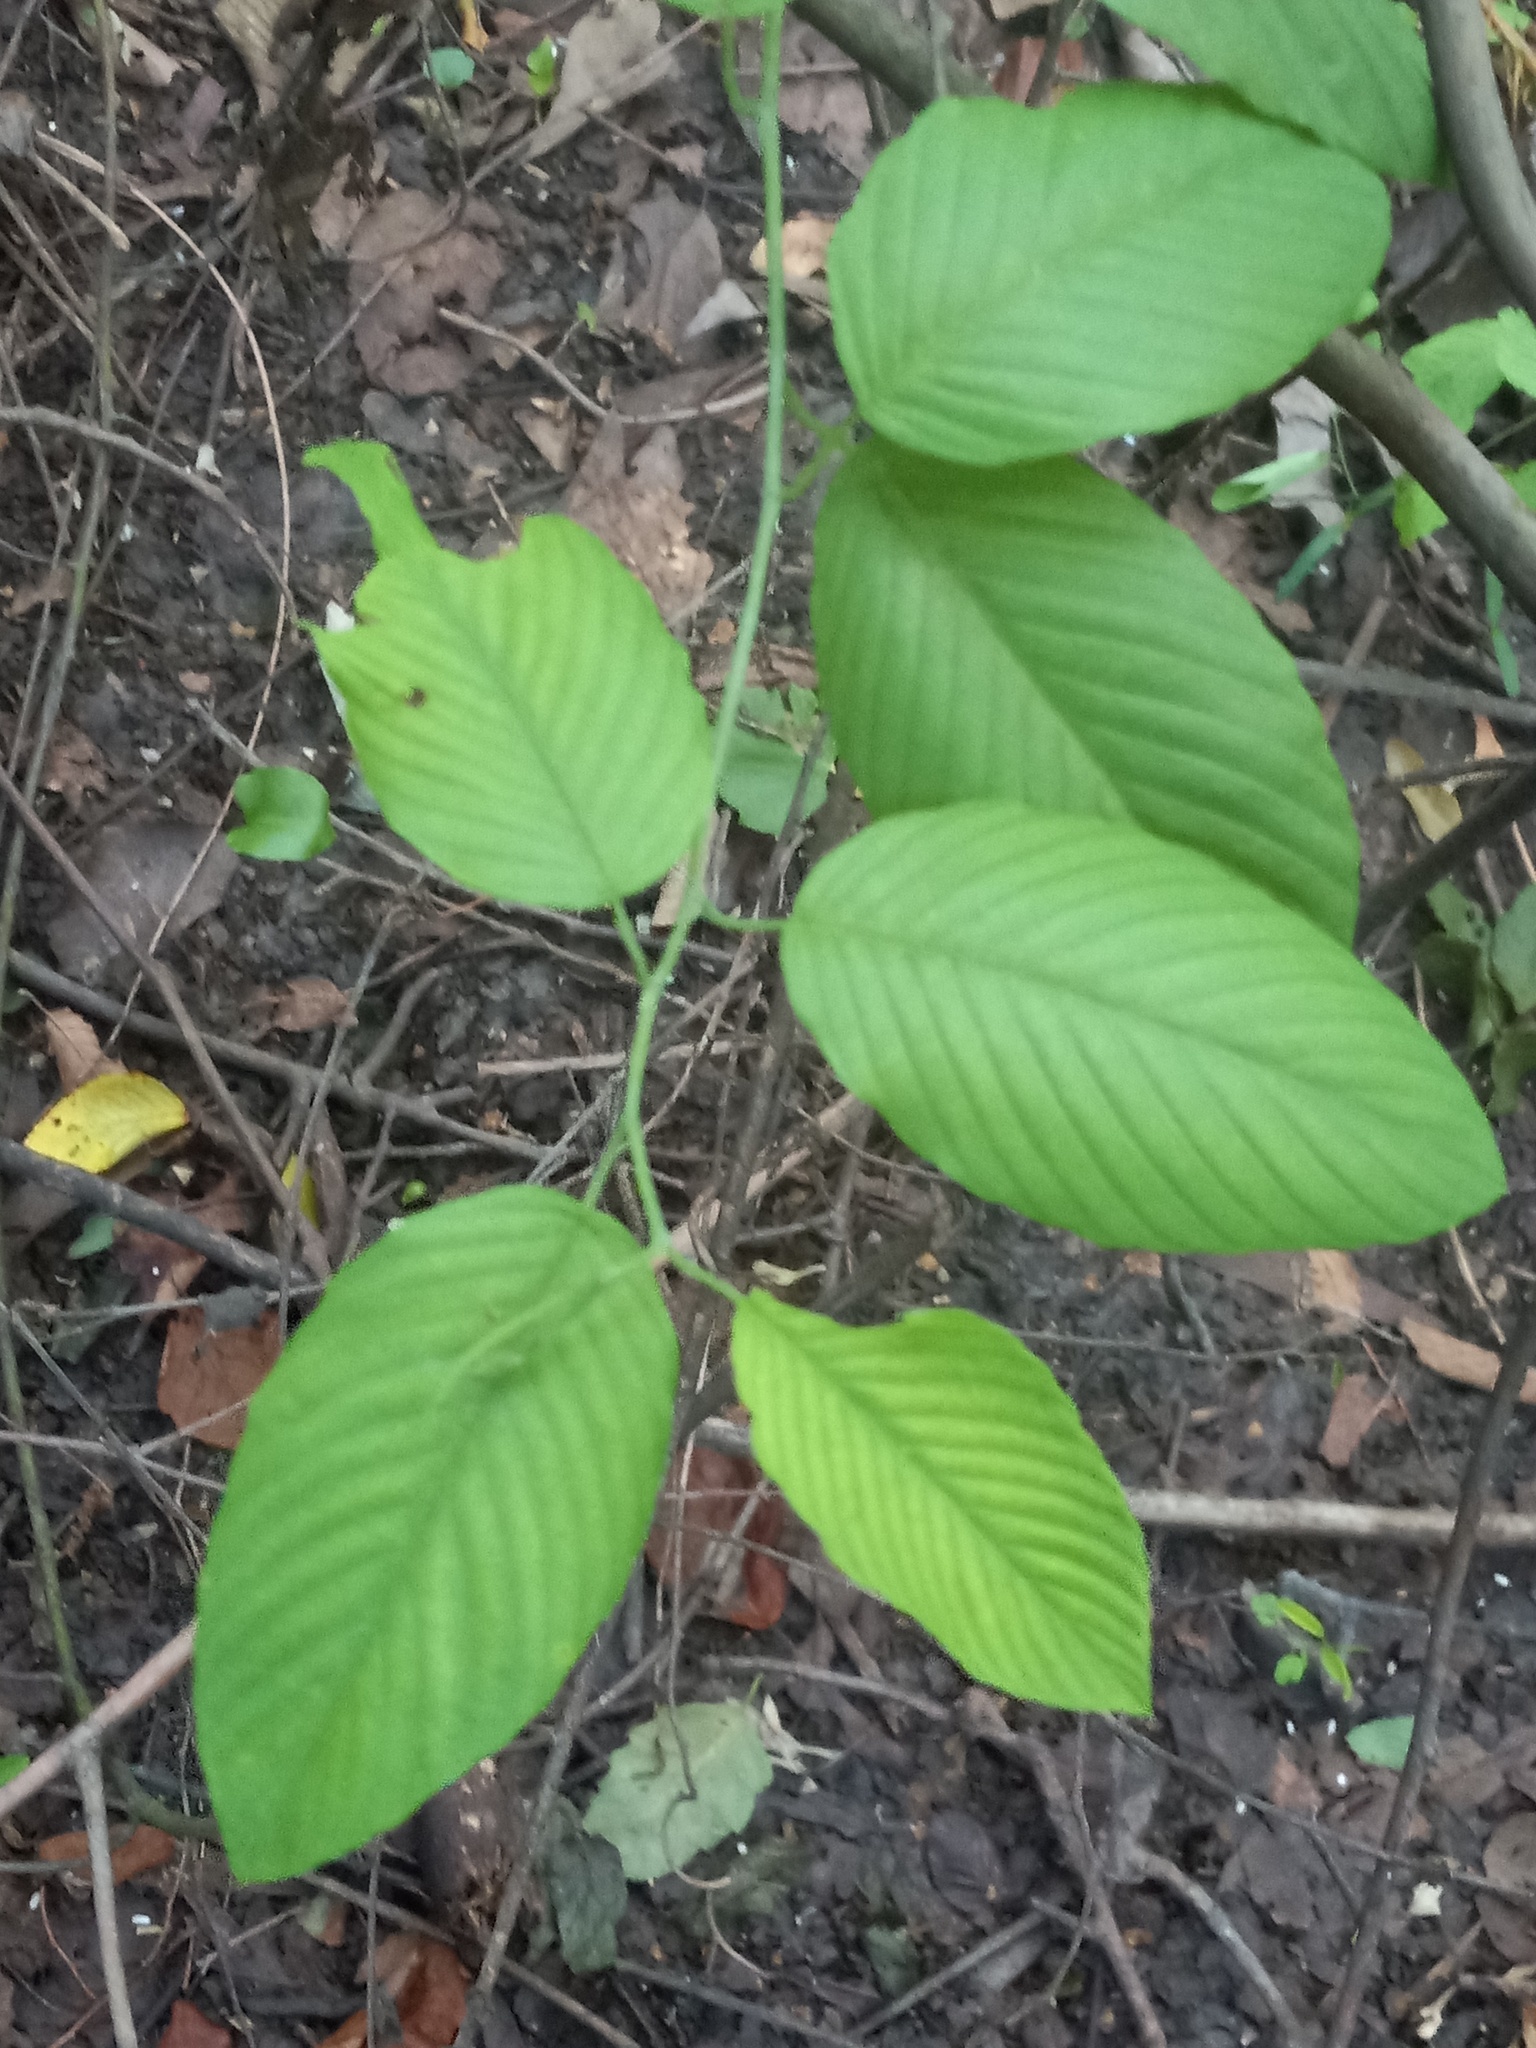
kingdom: Plantae
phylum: Tracheophyta
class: Magnoliopsida
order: Rosales
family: Rhamnaceae
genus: Berchemia
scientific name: Berchemia scandens
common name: Supplejack
